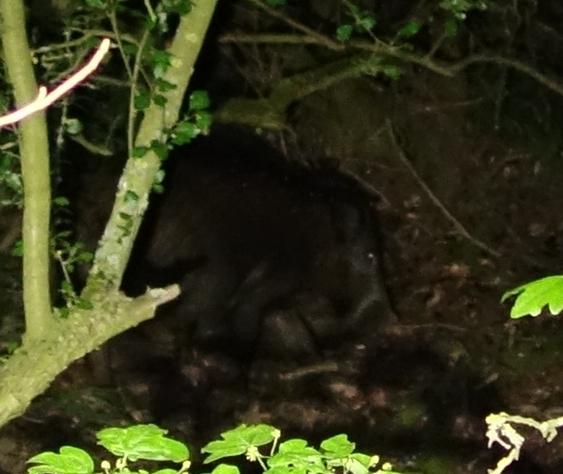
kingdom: Animalia
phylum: Chordata
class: Mammalia
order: Artiodactyla
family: Suidae
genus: Sus
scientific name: Sus scrofa
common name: Wild boar
